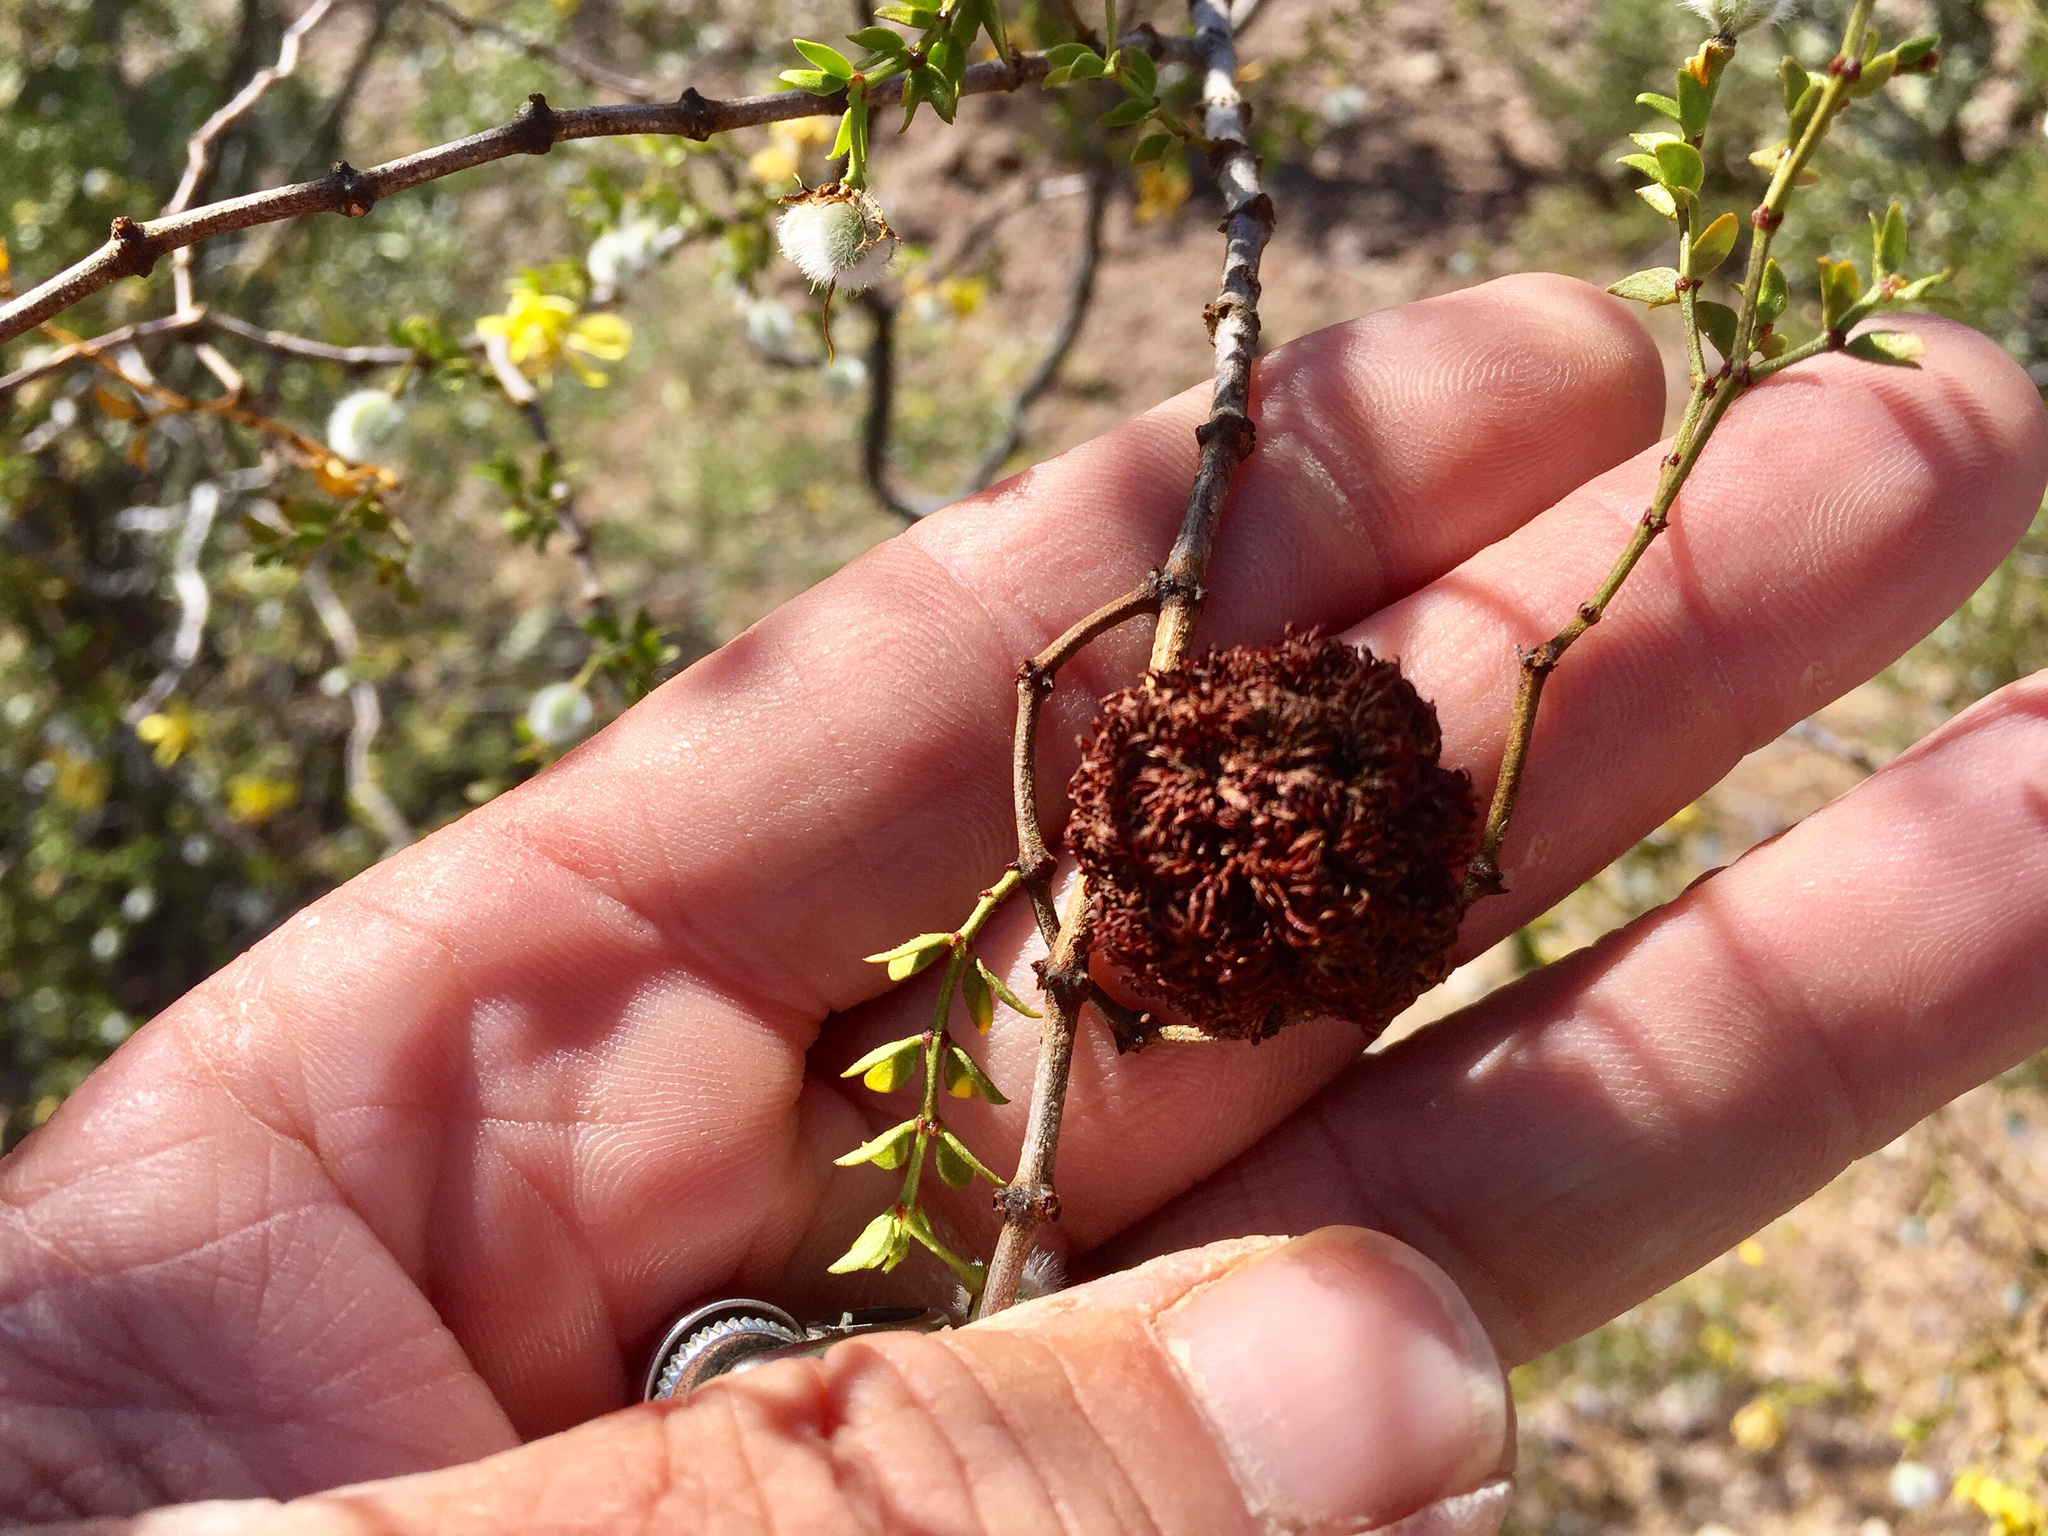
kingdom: Animalia
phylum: Arthropoda
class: Insecta
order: Diptera
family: Cecidomyiidae
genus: Asphondylia
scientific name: Asphondylia auripila
